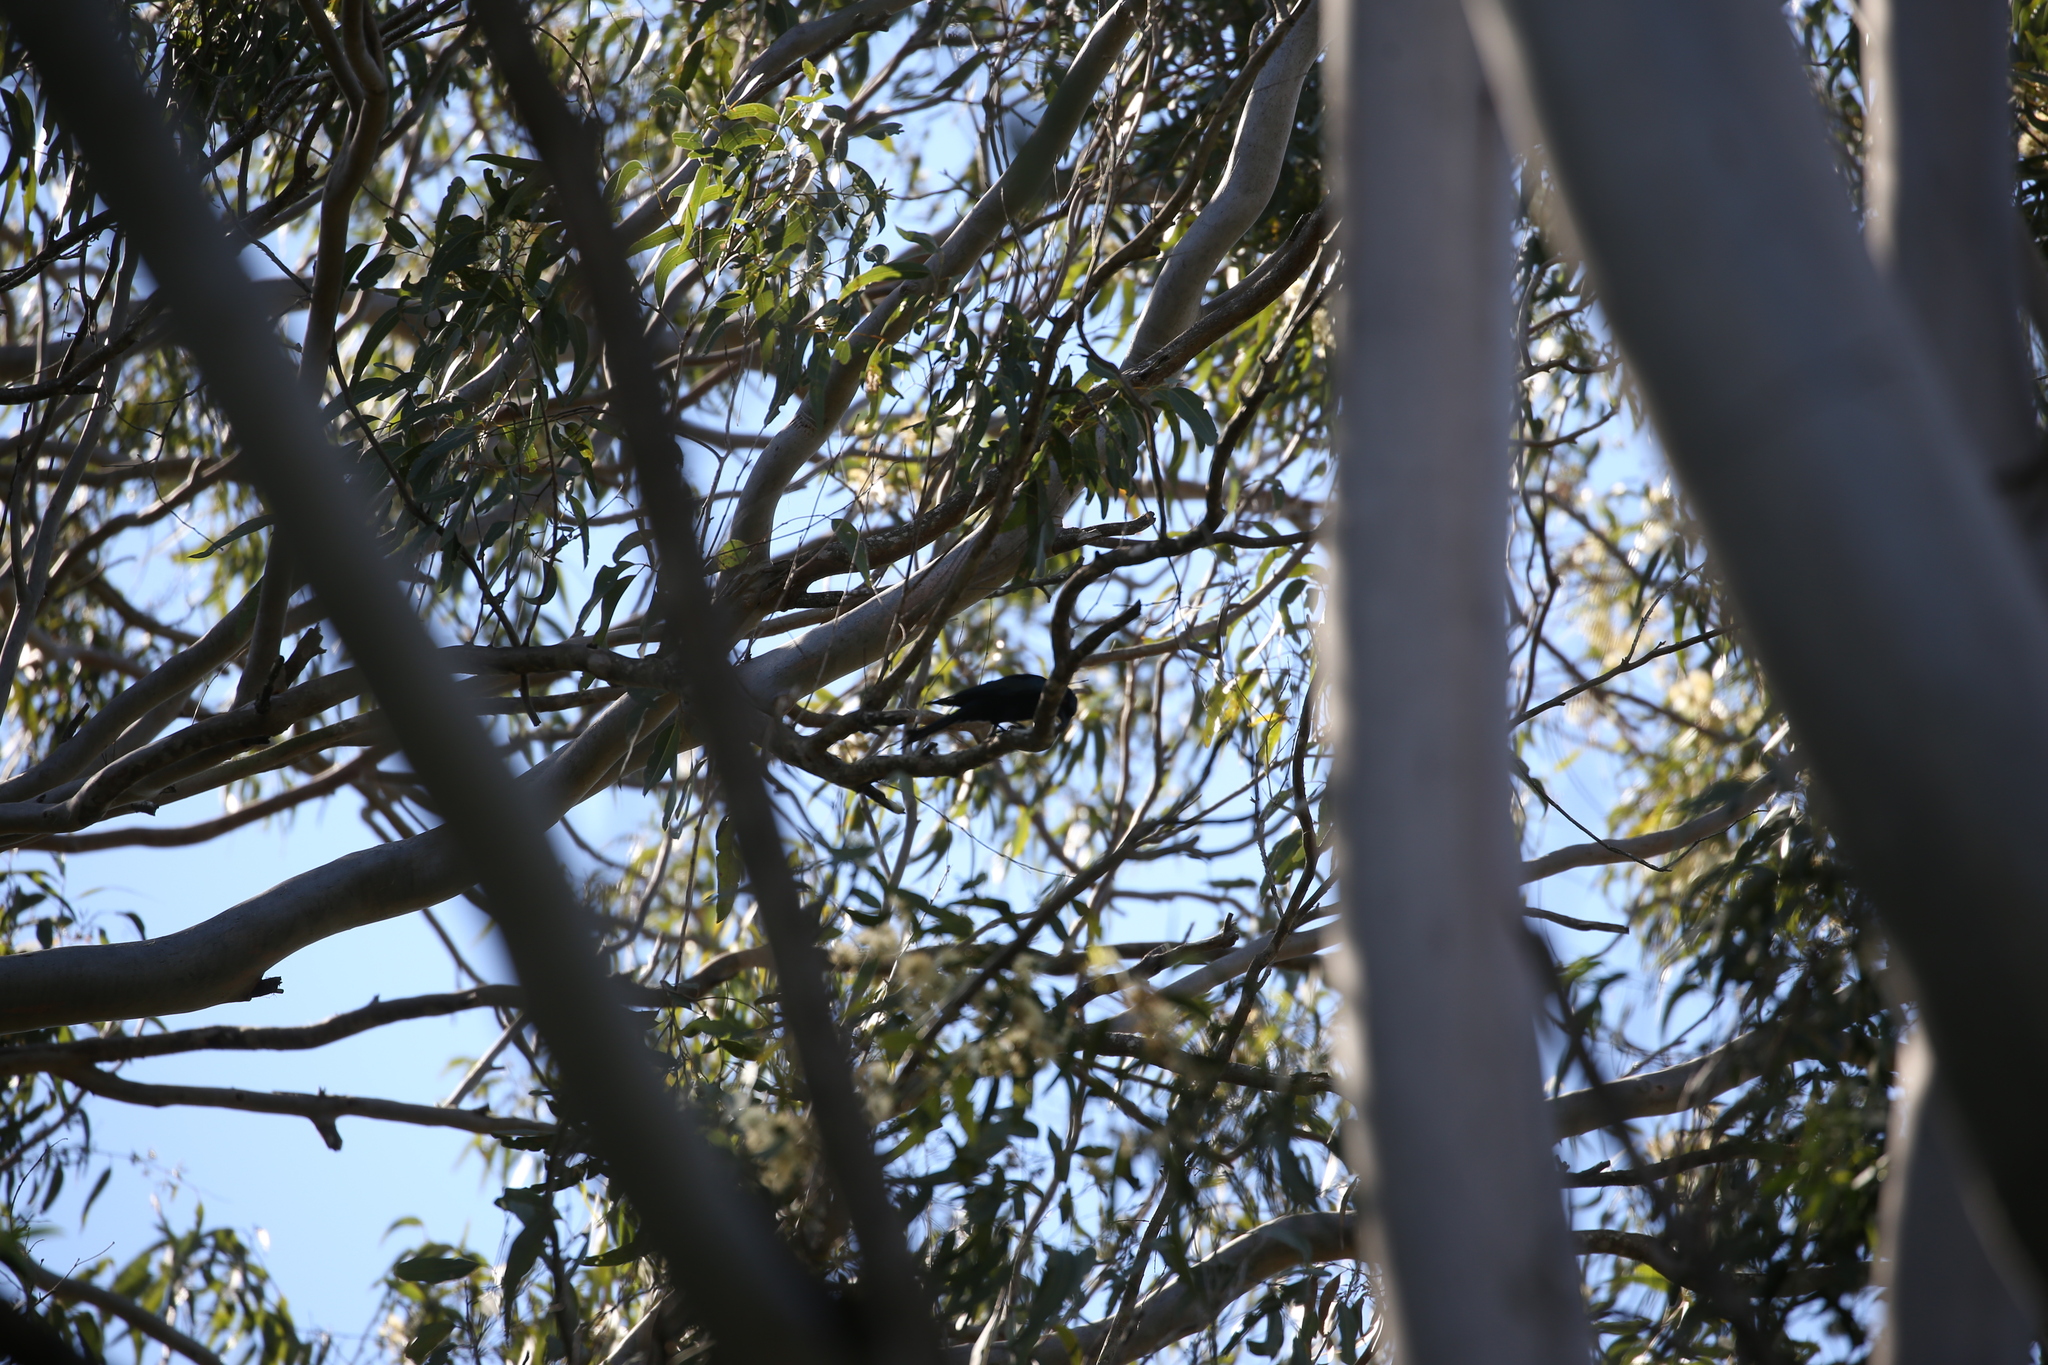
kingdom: Animalia
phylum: Chordata
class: Aves
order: Passeriformes
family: Dicruridae
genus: Dicrurus
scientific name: Dicrurus bracteatus
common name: Spangled drongo
